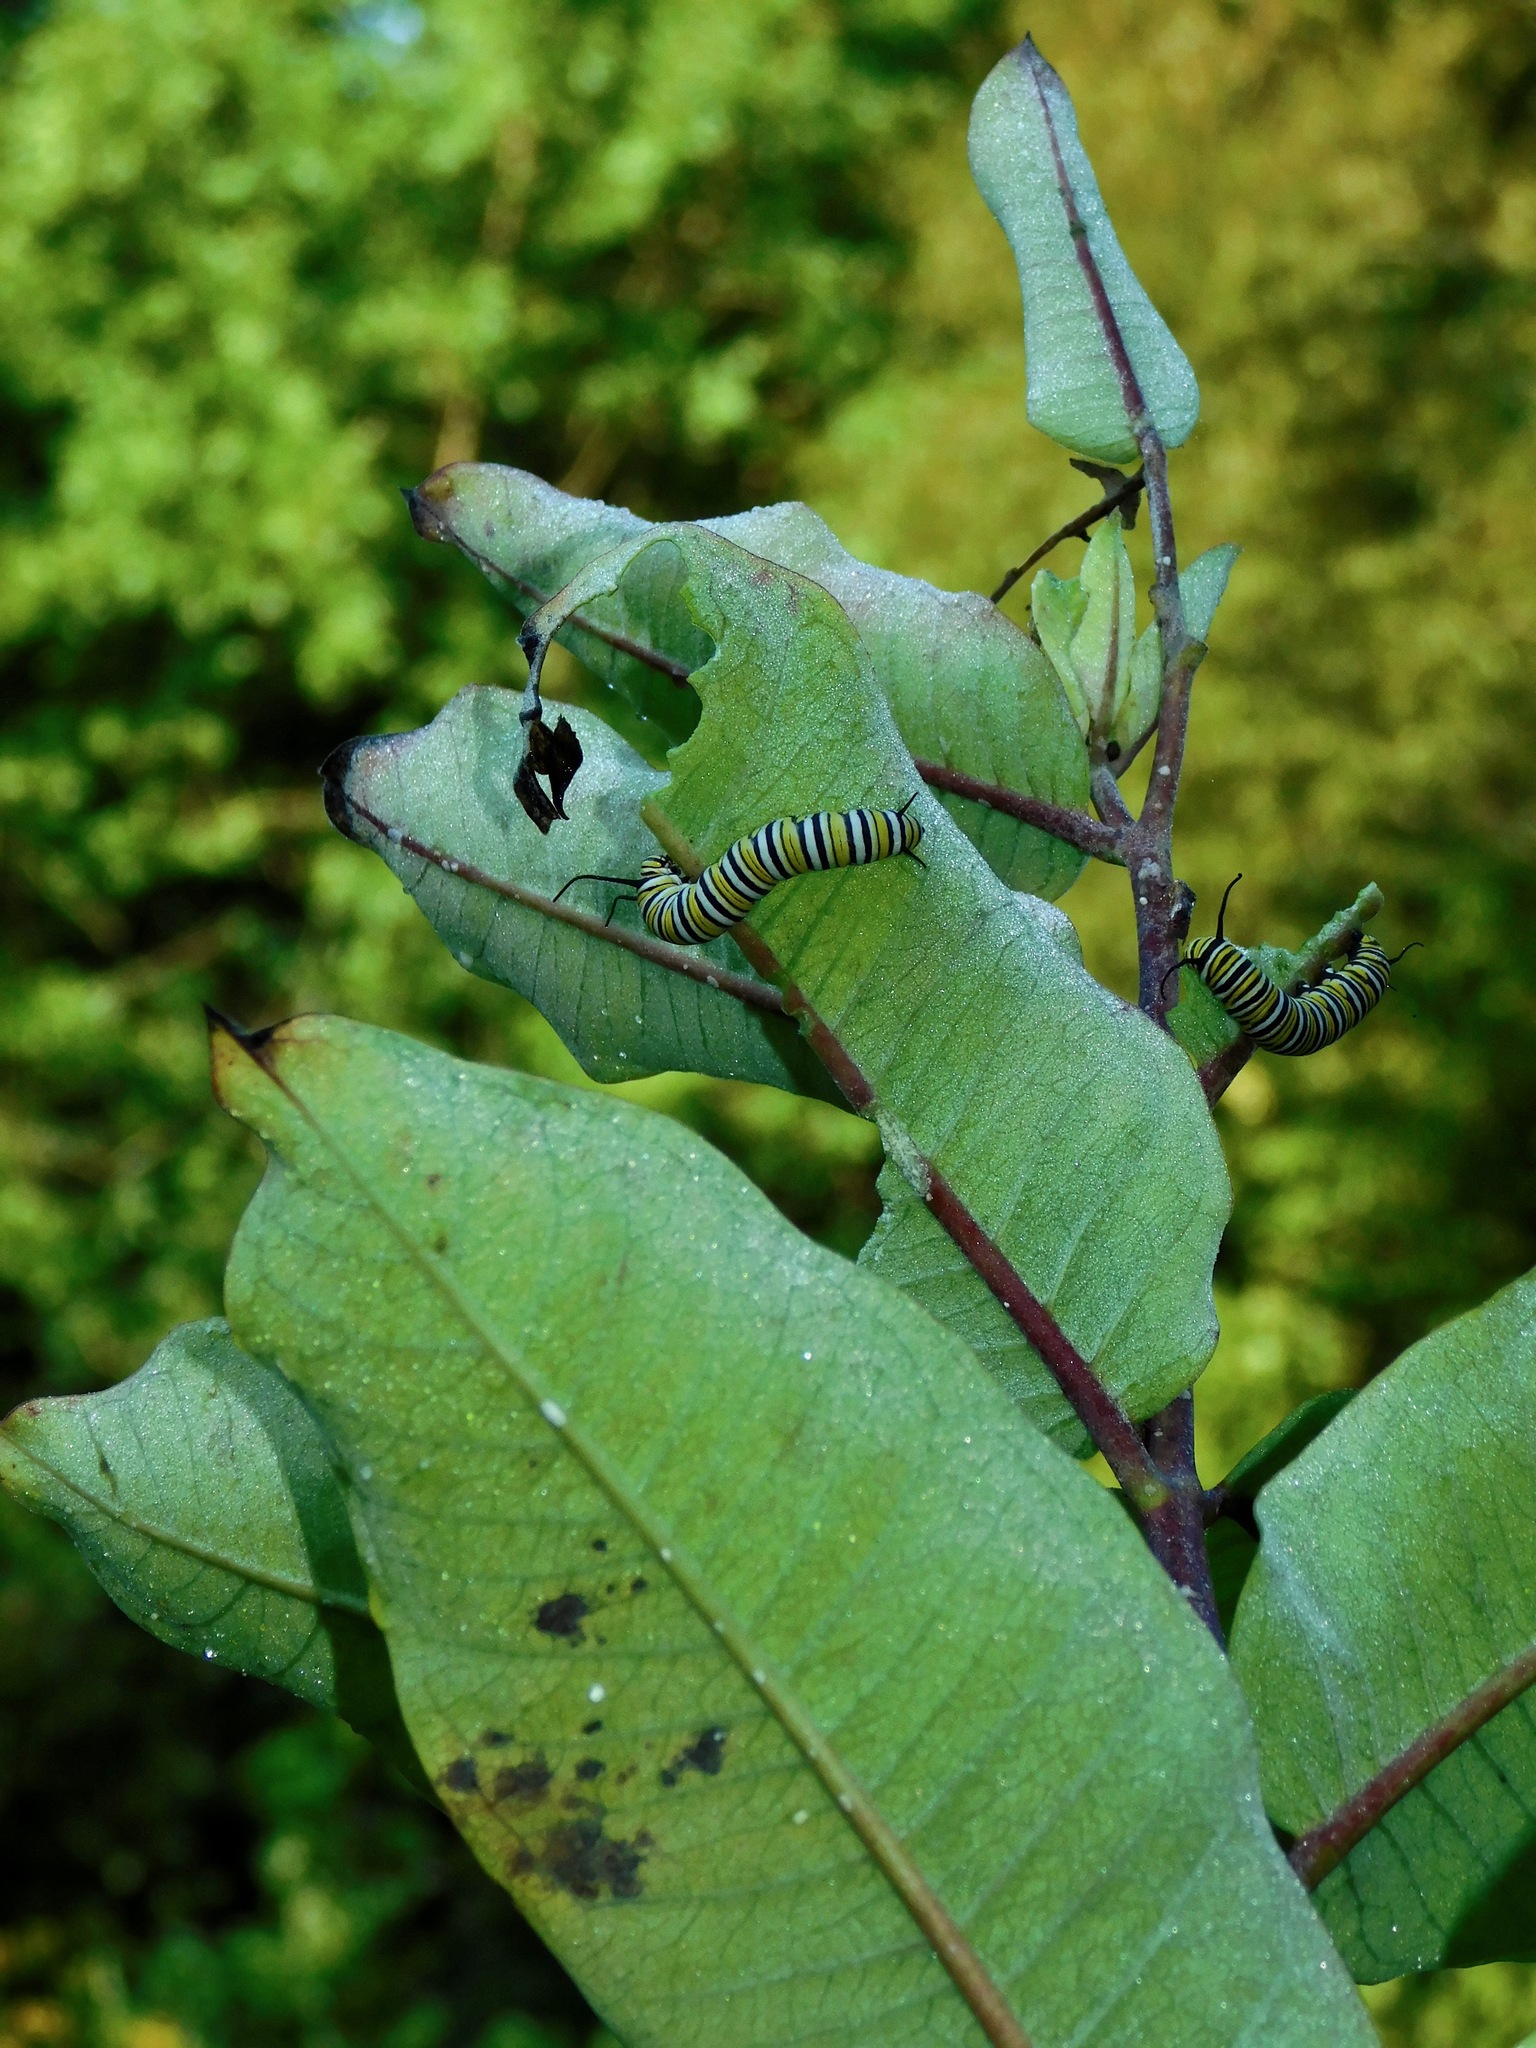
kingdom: Plantae
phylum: Tracheophyta
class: Magnoliopsida
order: Gentianales
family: Apocynaceae
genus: Asclepias
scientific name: Asclepias syriaca
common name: Common milkweed
